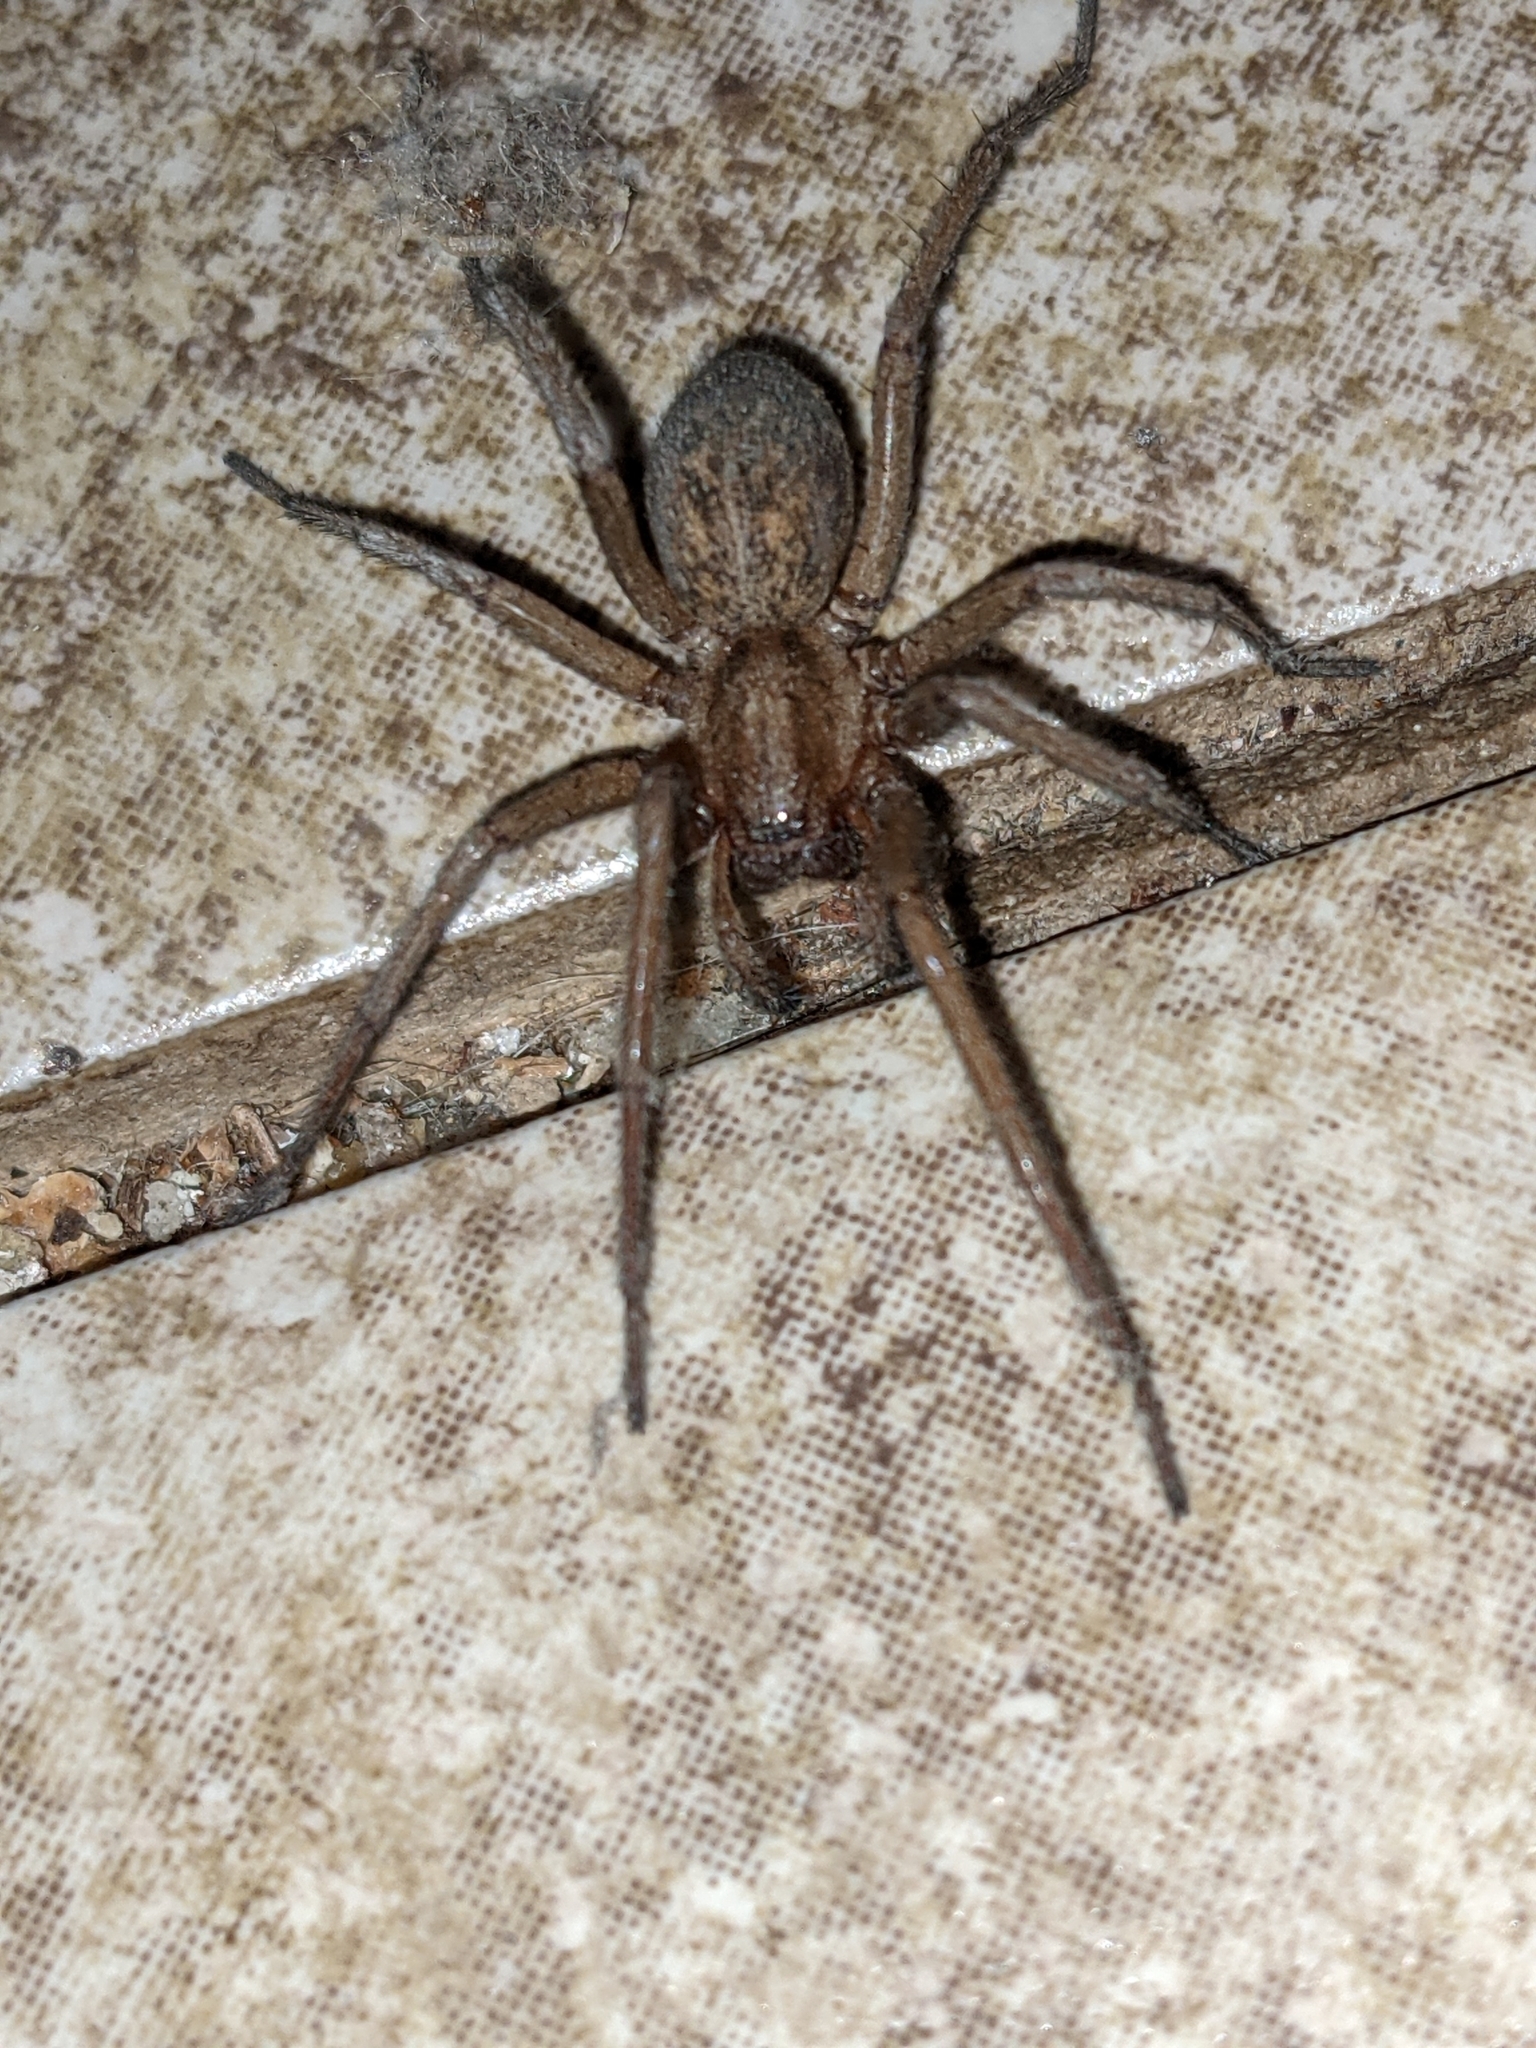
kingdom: Animalia
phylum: Arthropoda
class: Arachnida
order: Araneae
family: Agelenidae
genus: Eratigena
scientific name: Eratigena agrestis
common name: Hobo spider
